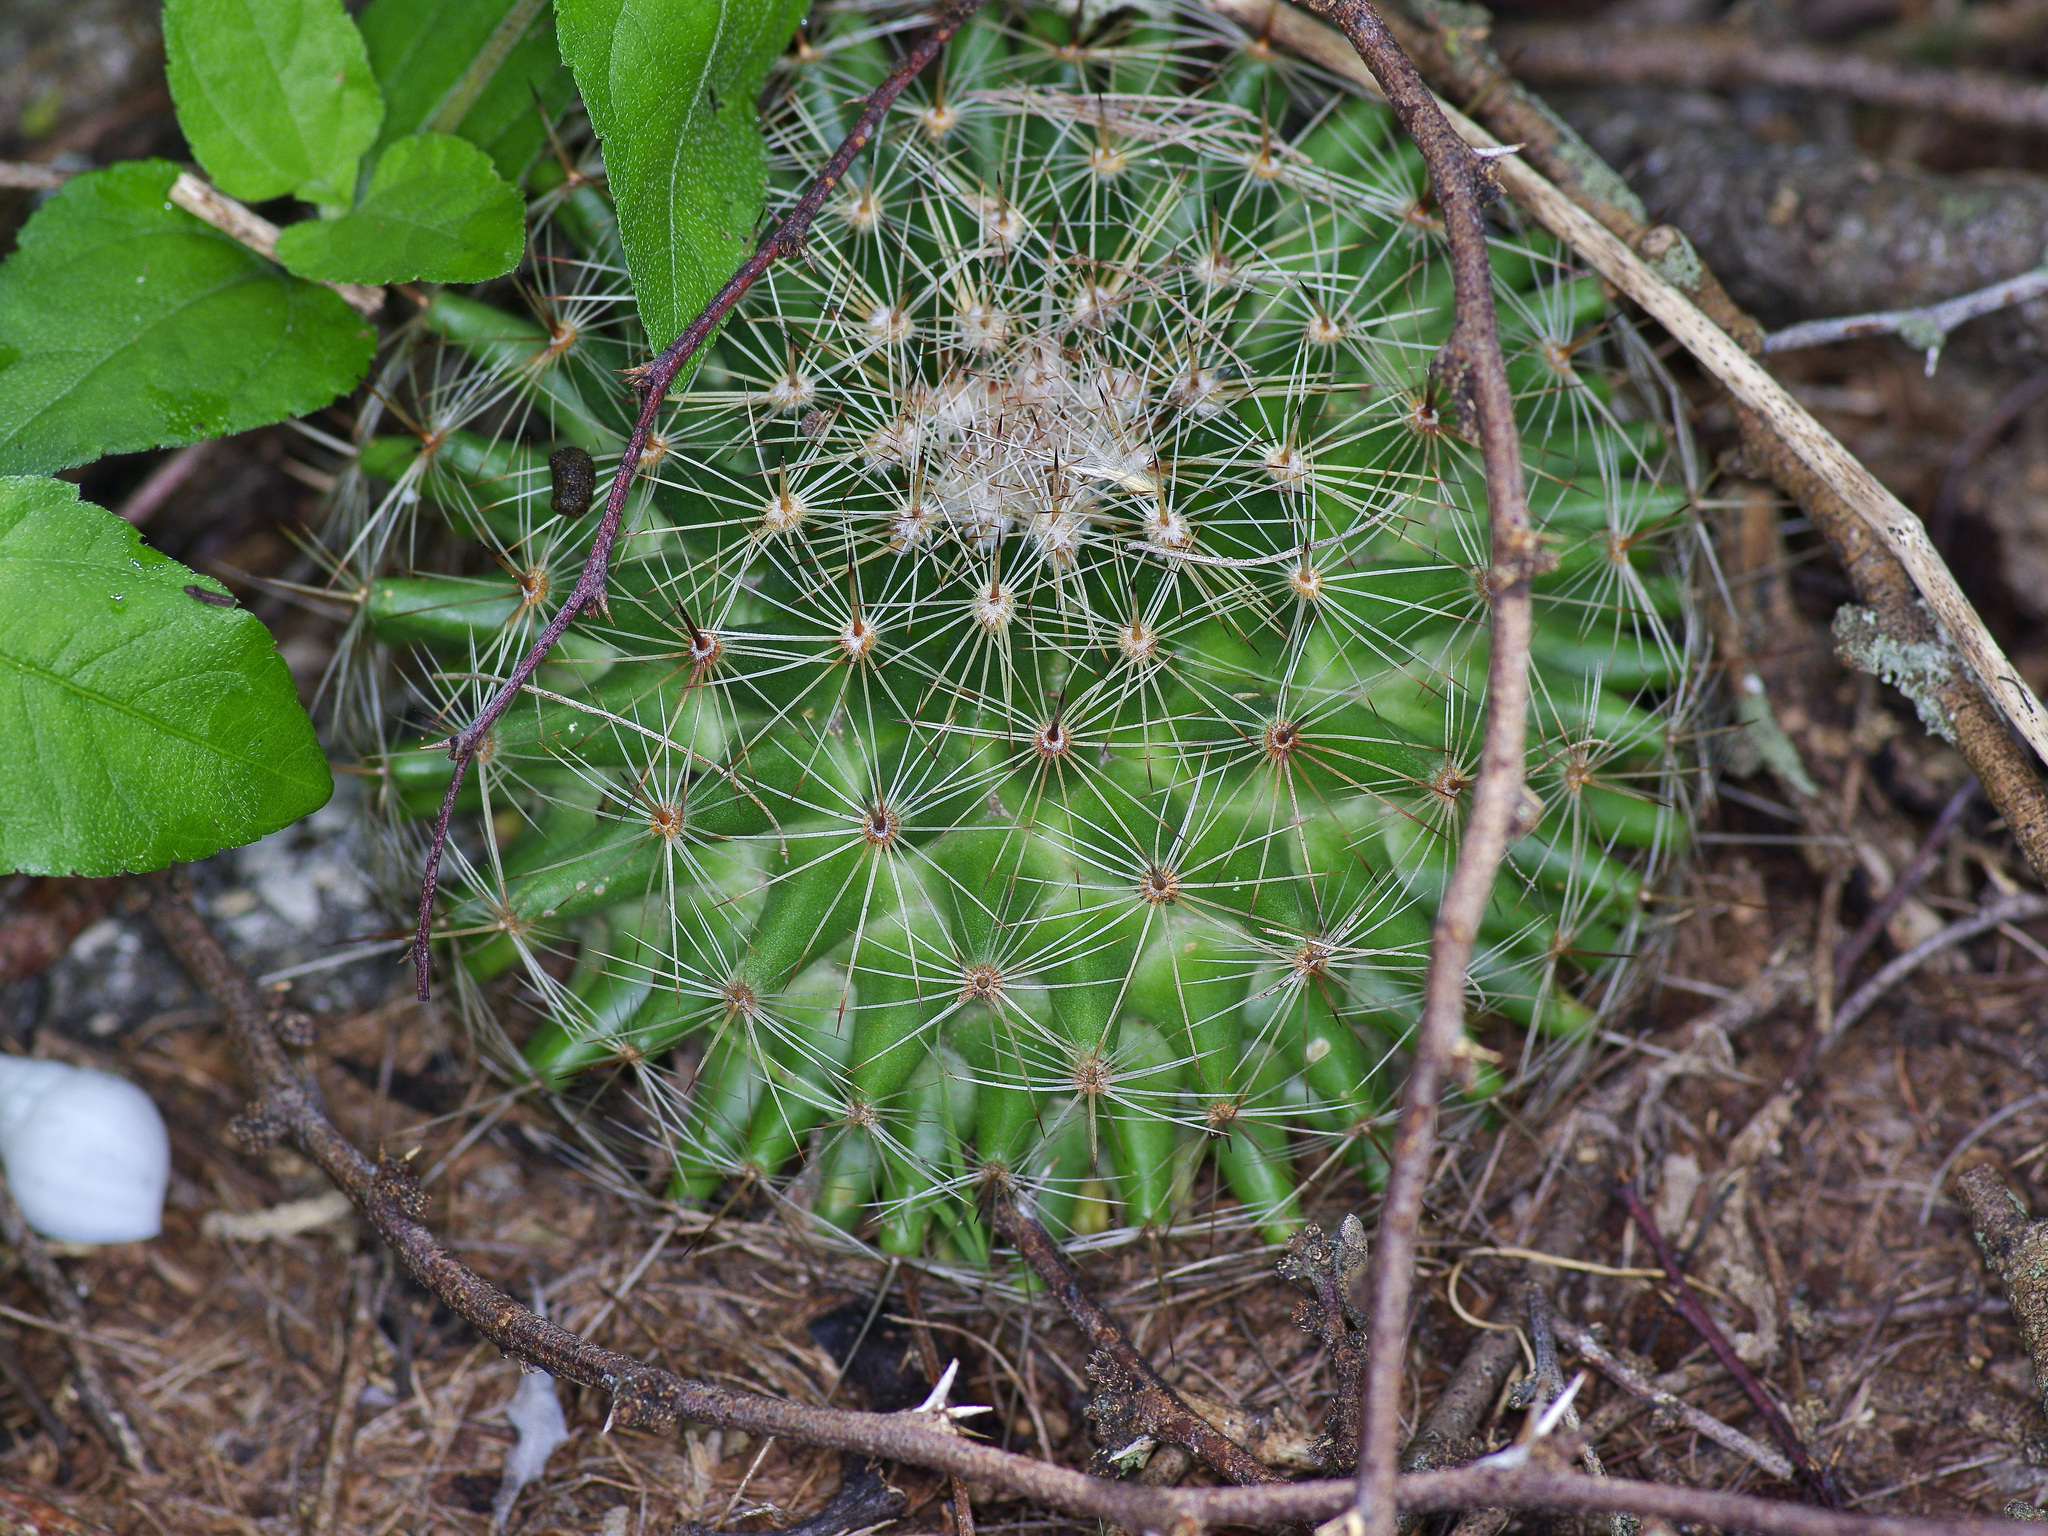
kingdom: Plantae
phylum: Tracheophyta
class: Magnoliopsida
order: Caryophyllales
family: Cactaceae
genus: Mammillaria
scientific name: Mammillaria heyderi
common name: Little nipple cactus
